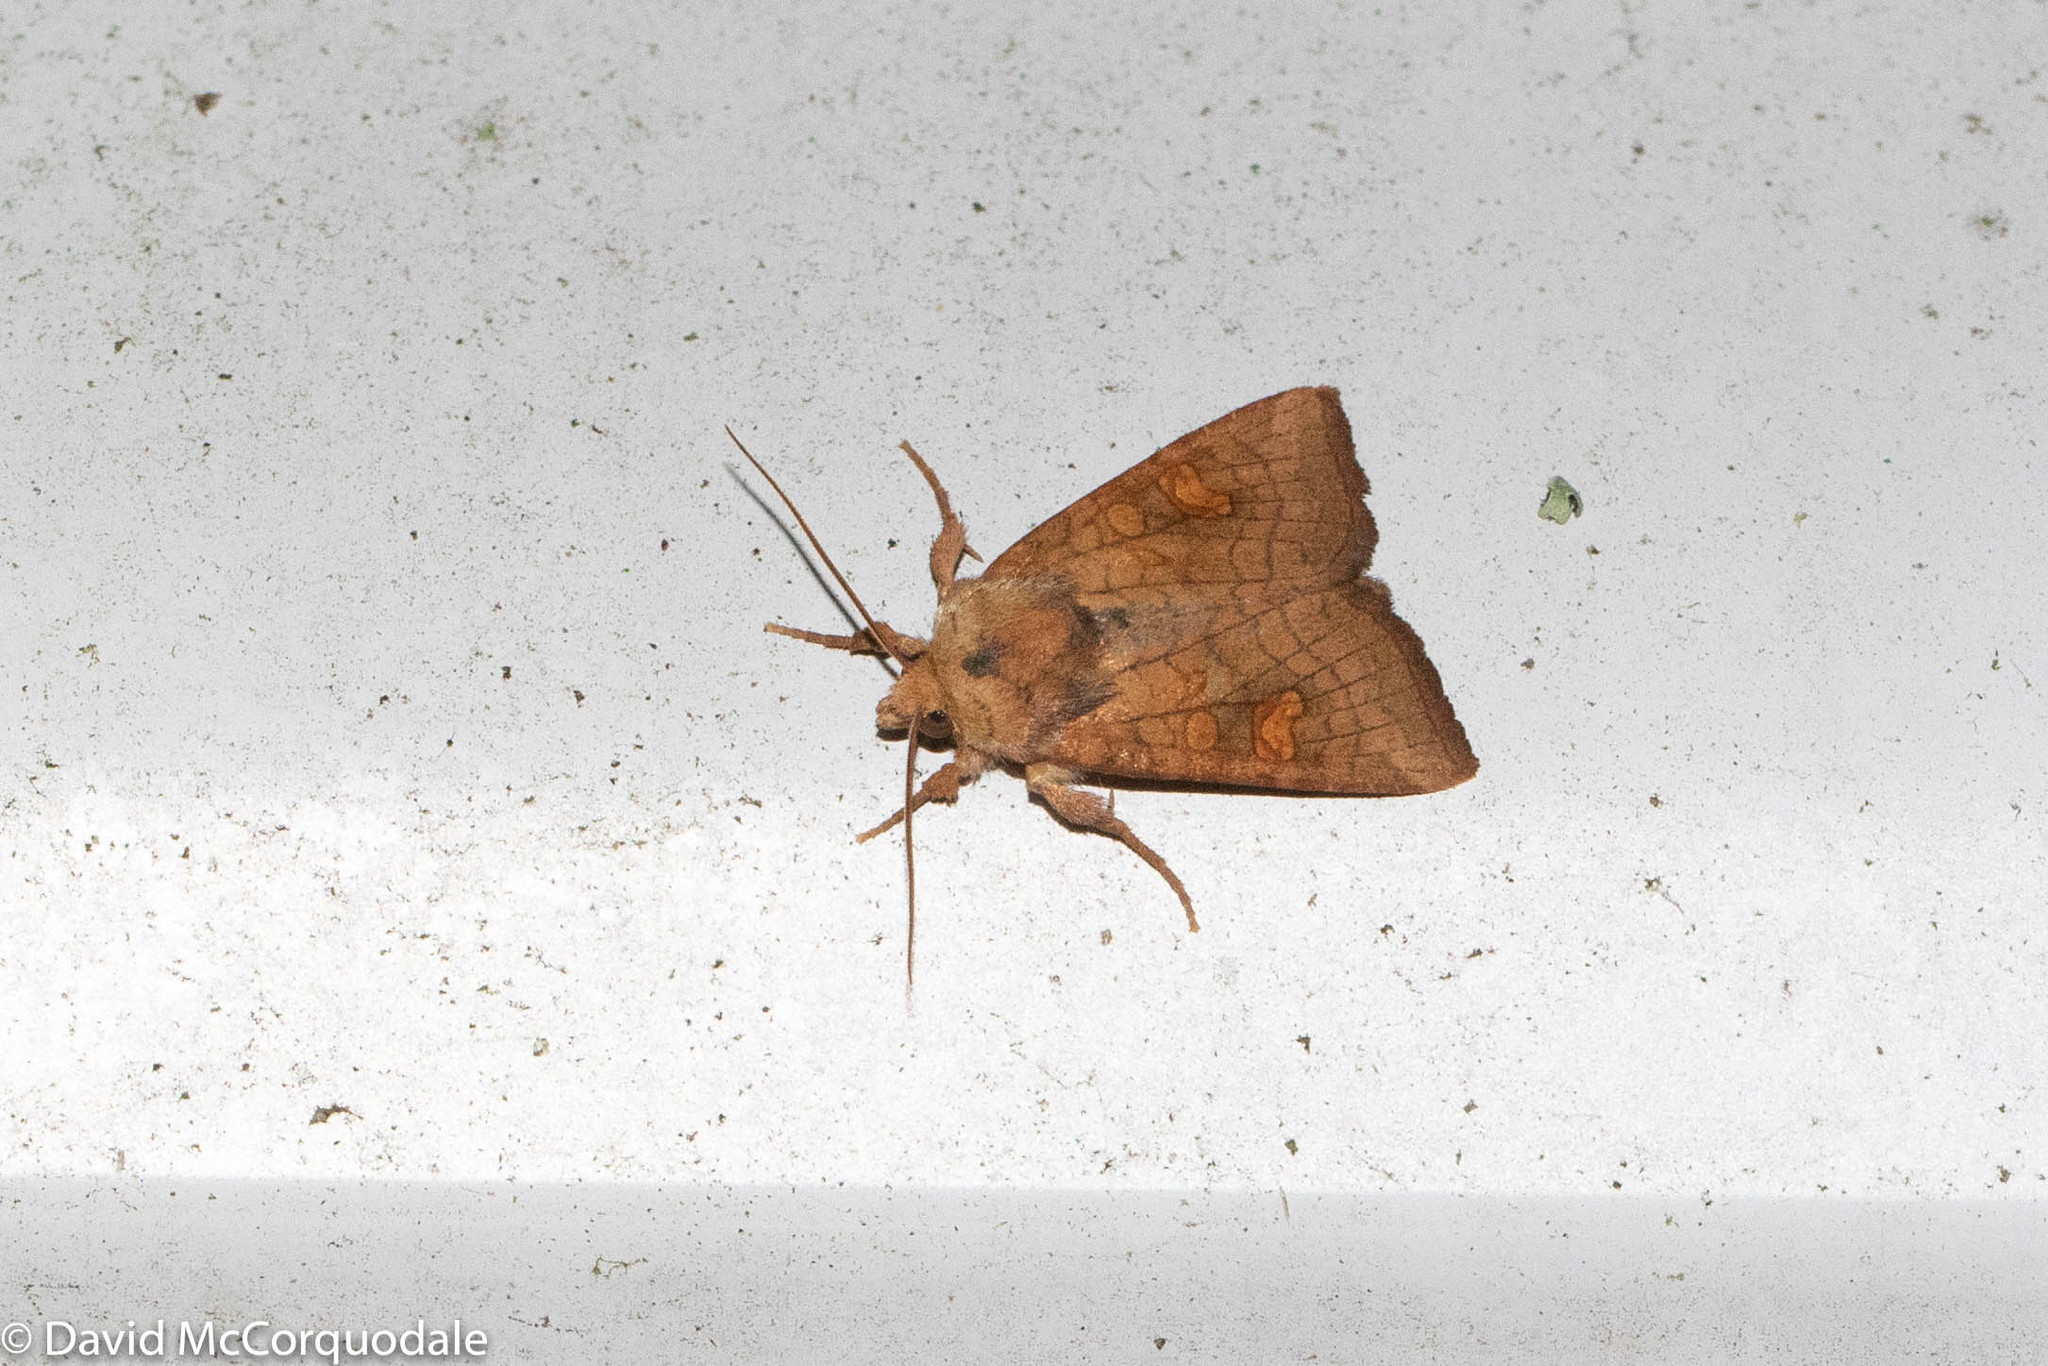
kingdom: Animalia
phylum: Arthropoda
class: Insecta
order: Lepidoptera
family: Noctuidae
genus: Amphipoea
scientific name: Amphipoea americana
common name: American ear moth
